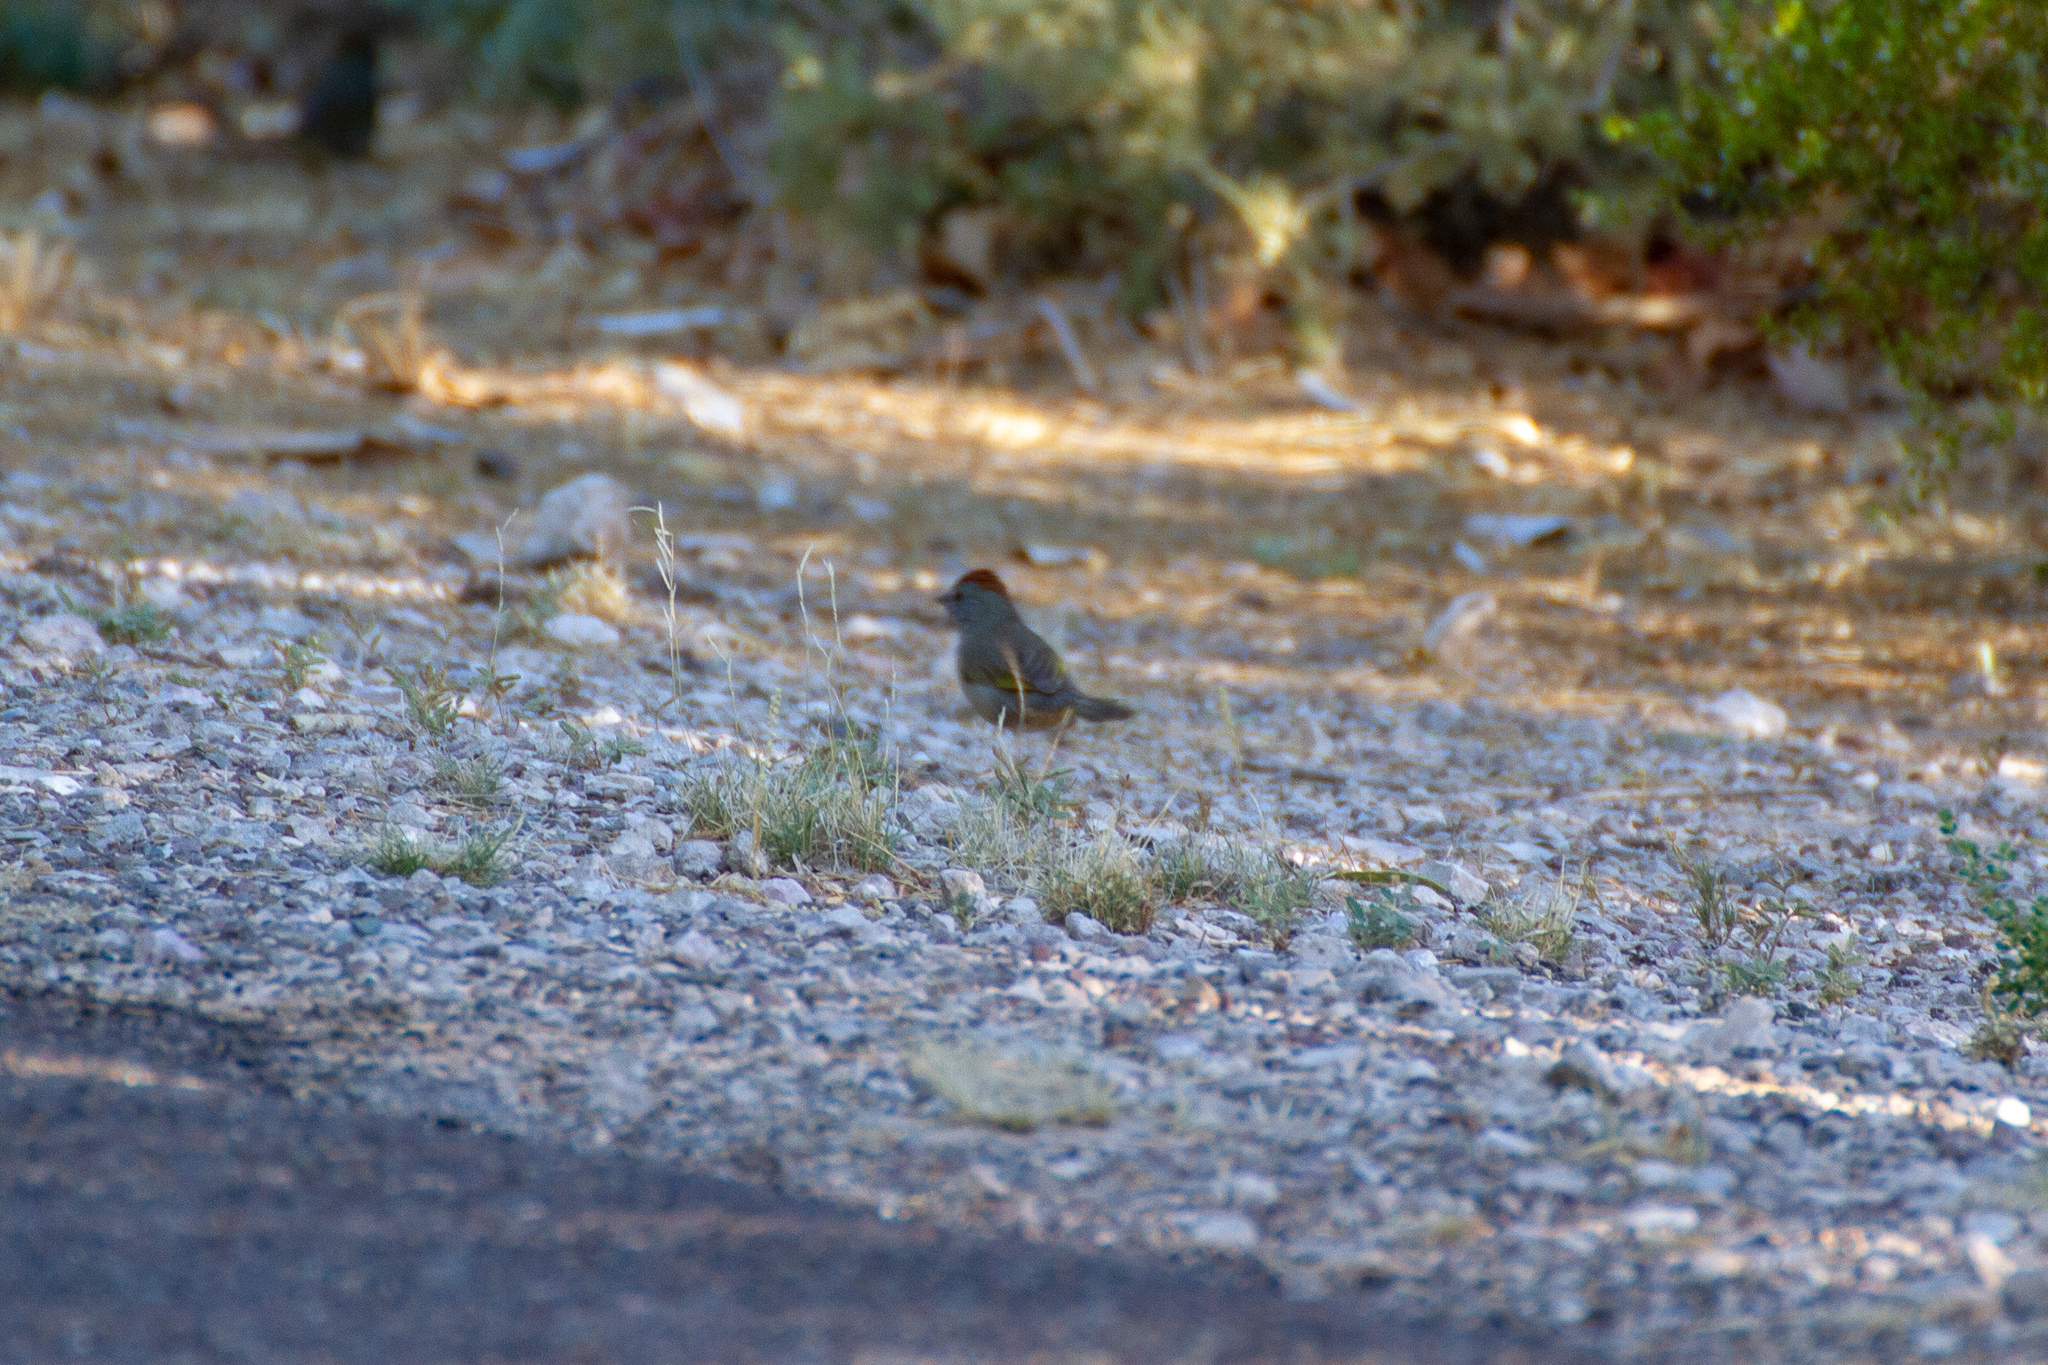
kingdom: Animalia
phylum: Chordata
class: Aves
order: Passeriformes
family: Passerellidae
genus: Pipilo
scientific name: Pipilo chlorurus
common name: Green-tailed towhee
